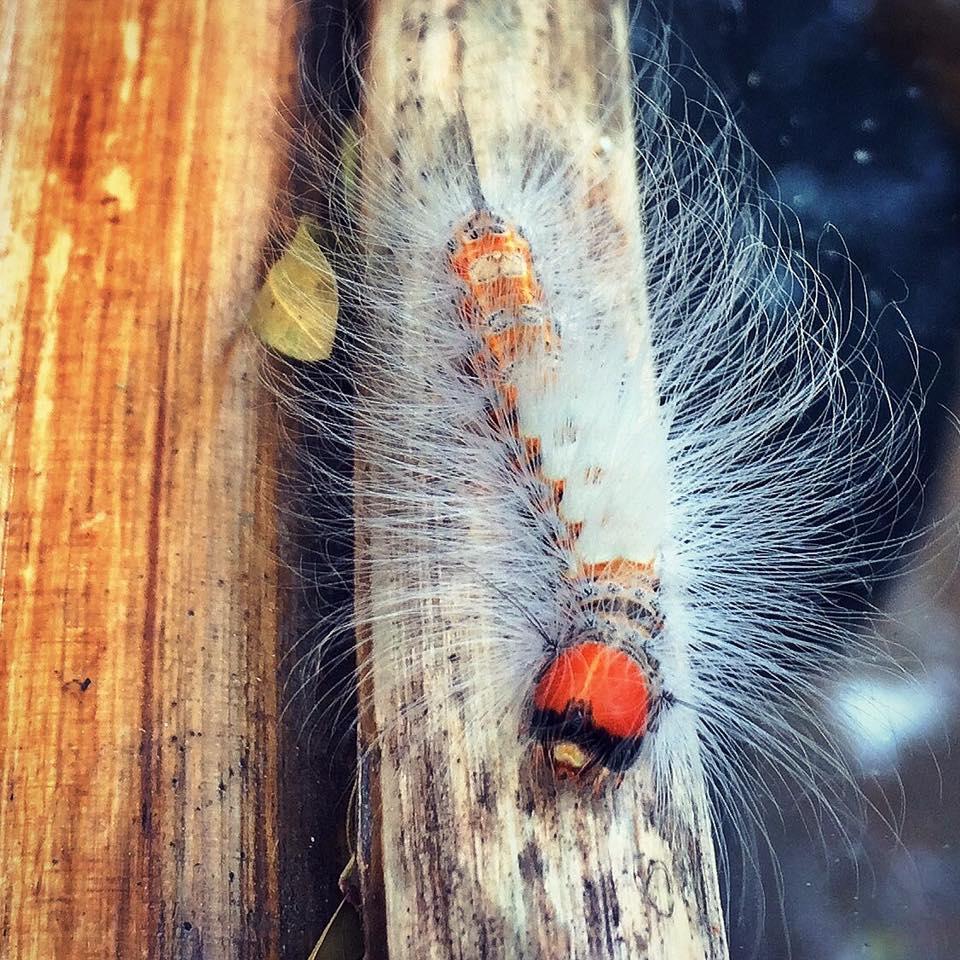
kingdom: Animalia
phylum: Arthropoda
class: Insecta
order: Lepidoptera
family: Erebidae
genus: Dasychira
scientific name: Dasychira georgiana
